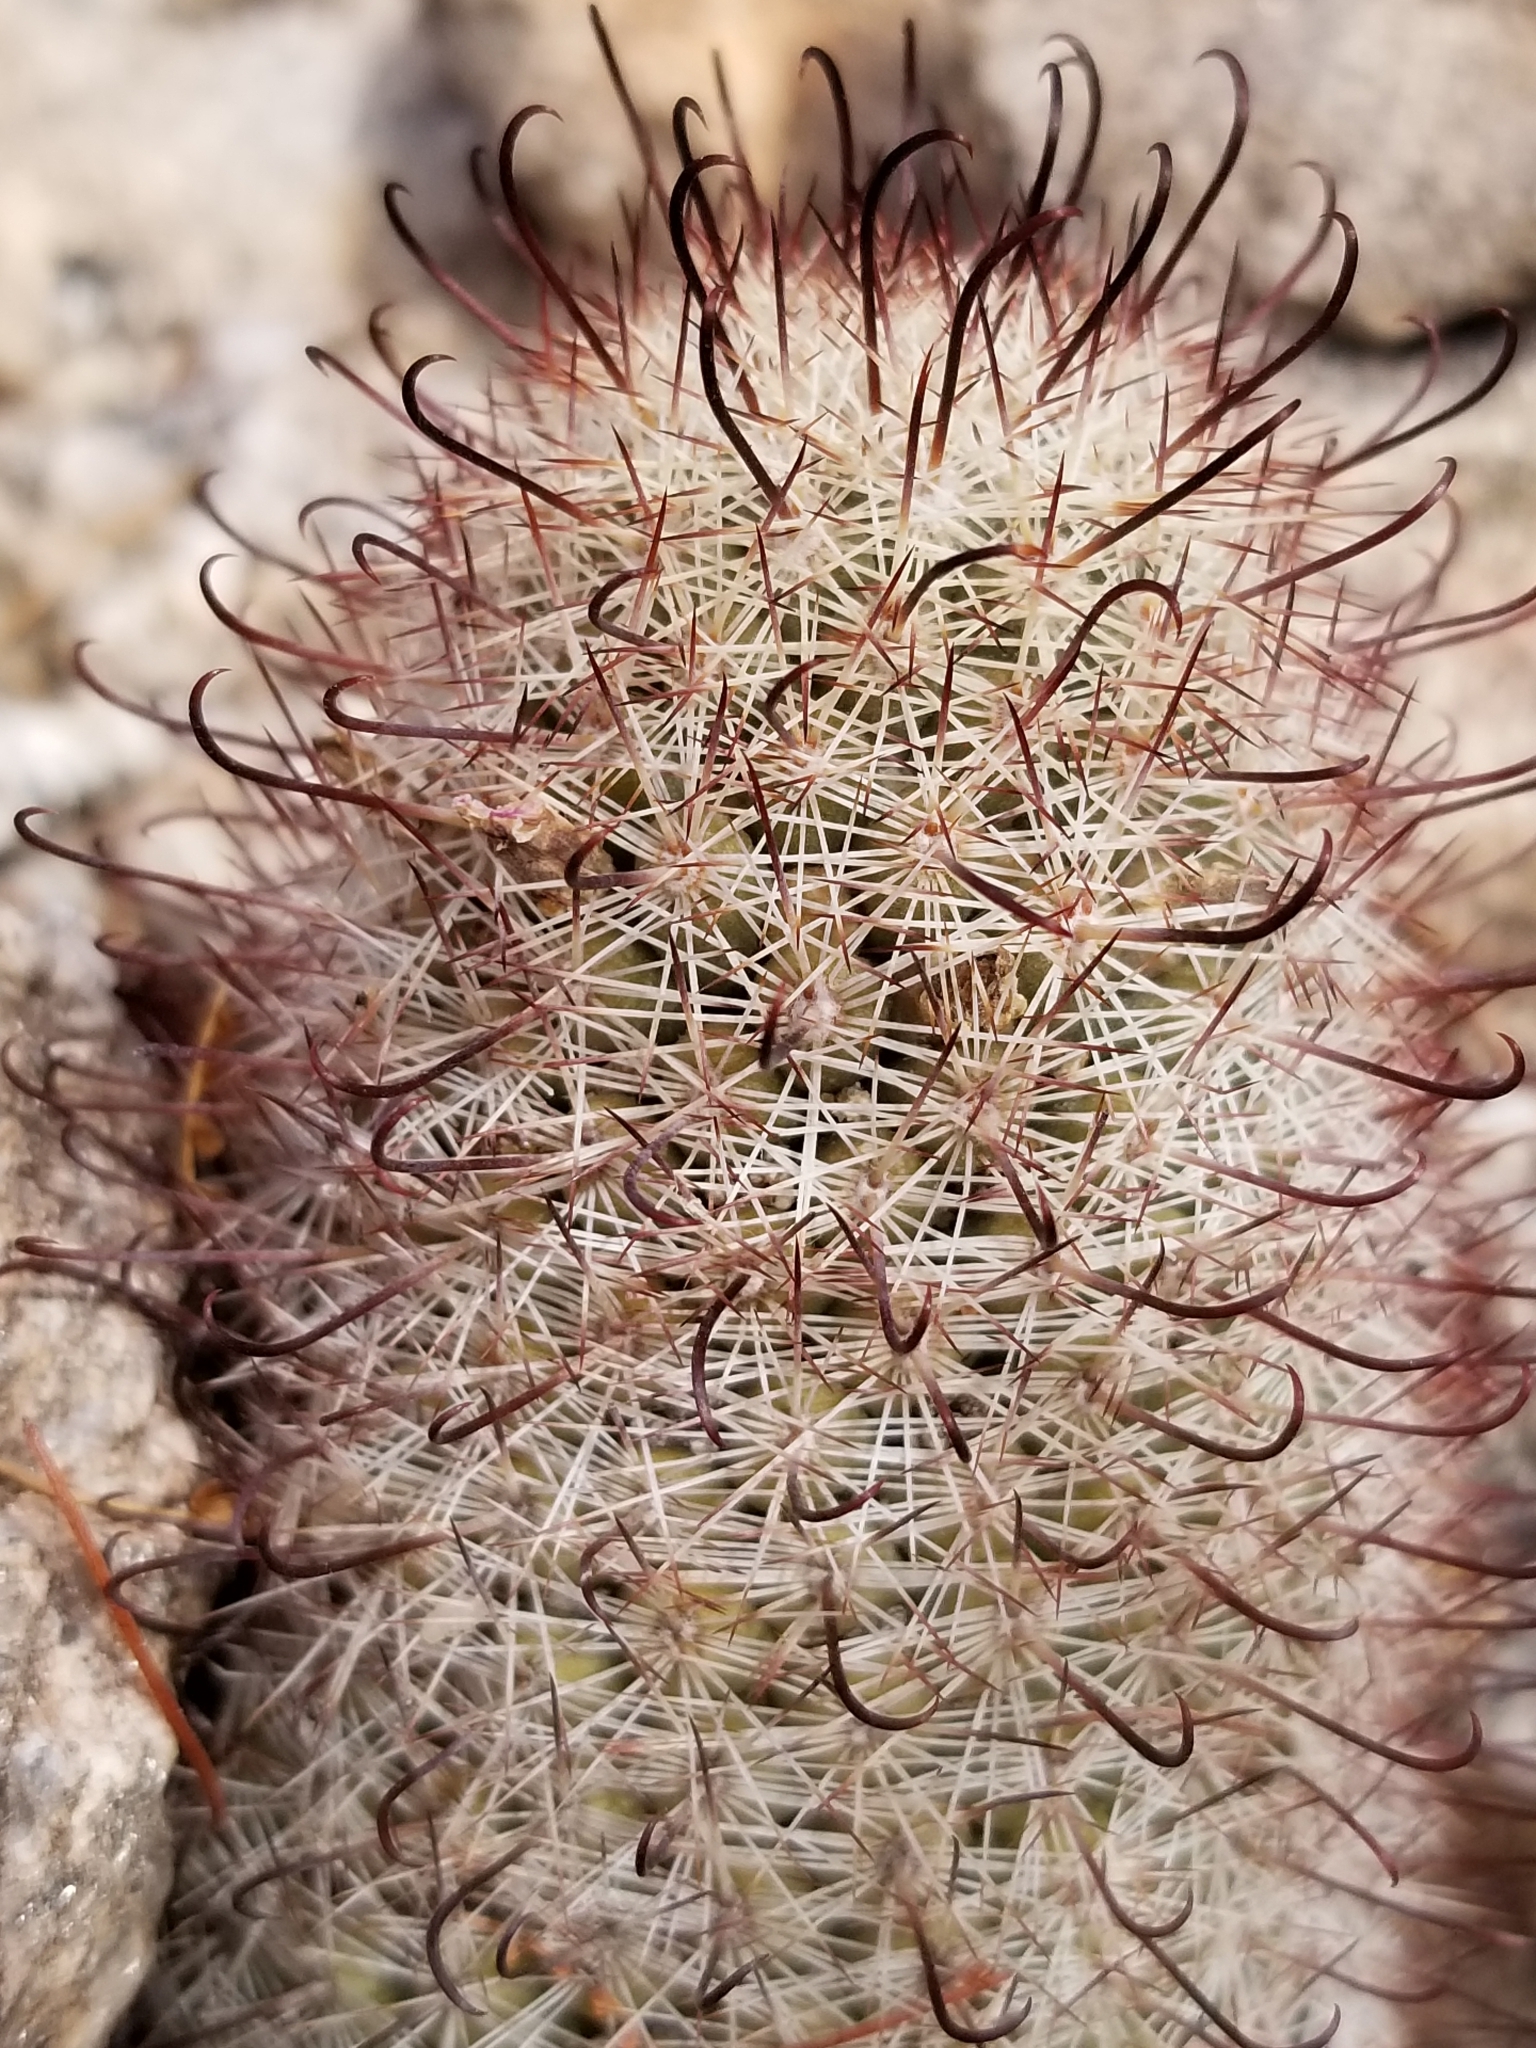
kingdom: Plantae
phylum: Tracheophyta
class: Magnoliopsida
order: Caryophyllales
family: Cactaceae
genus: Cochemiea
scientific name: Cochemiea tetrancistra
